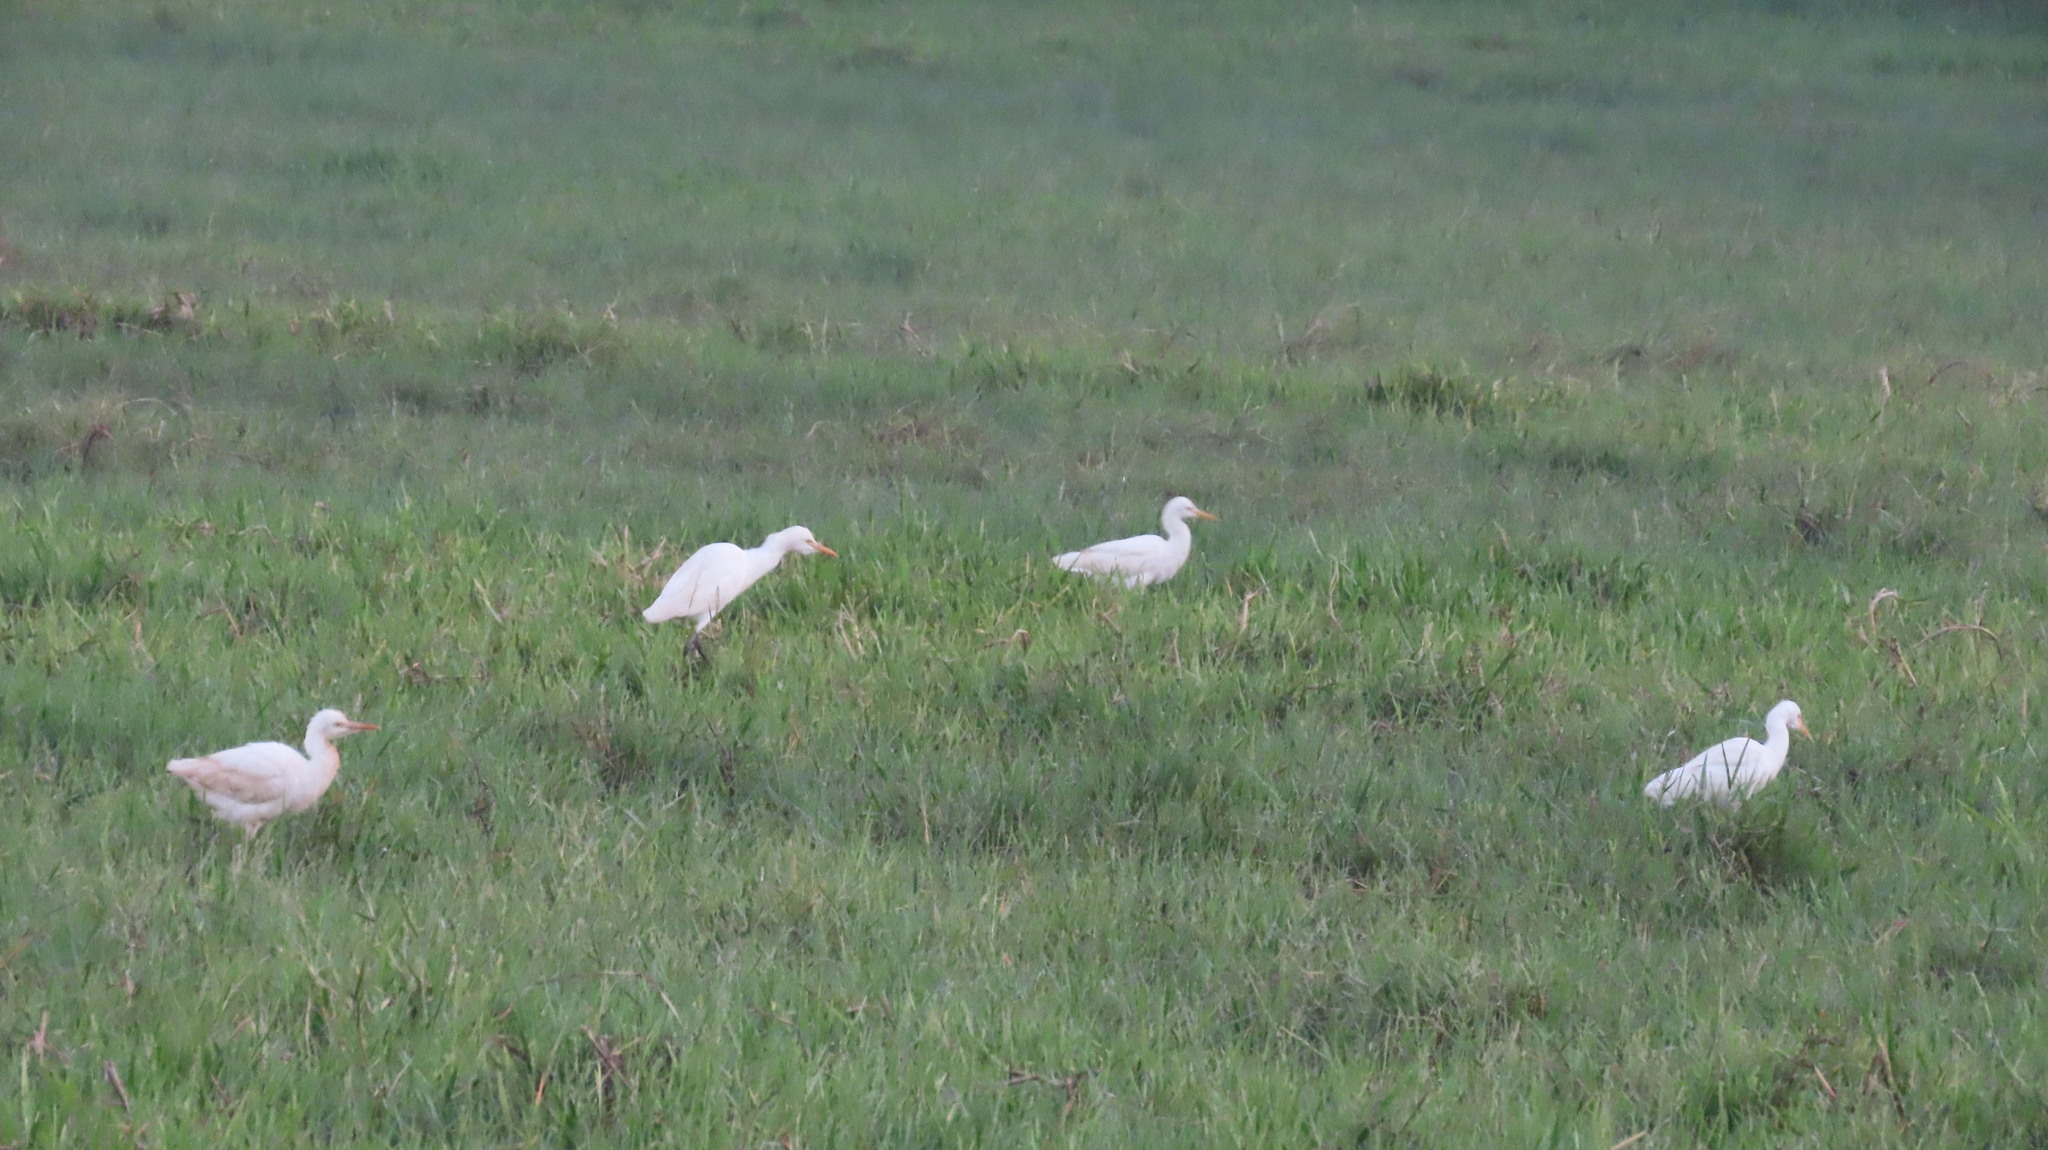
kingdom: Animalia
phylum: Chordata
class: Aves
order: Pelecaniformes
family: Ardeidae
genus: Bubulcus
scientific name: Bubulcus coromandus
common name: Eastern cattle egret
